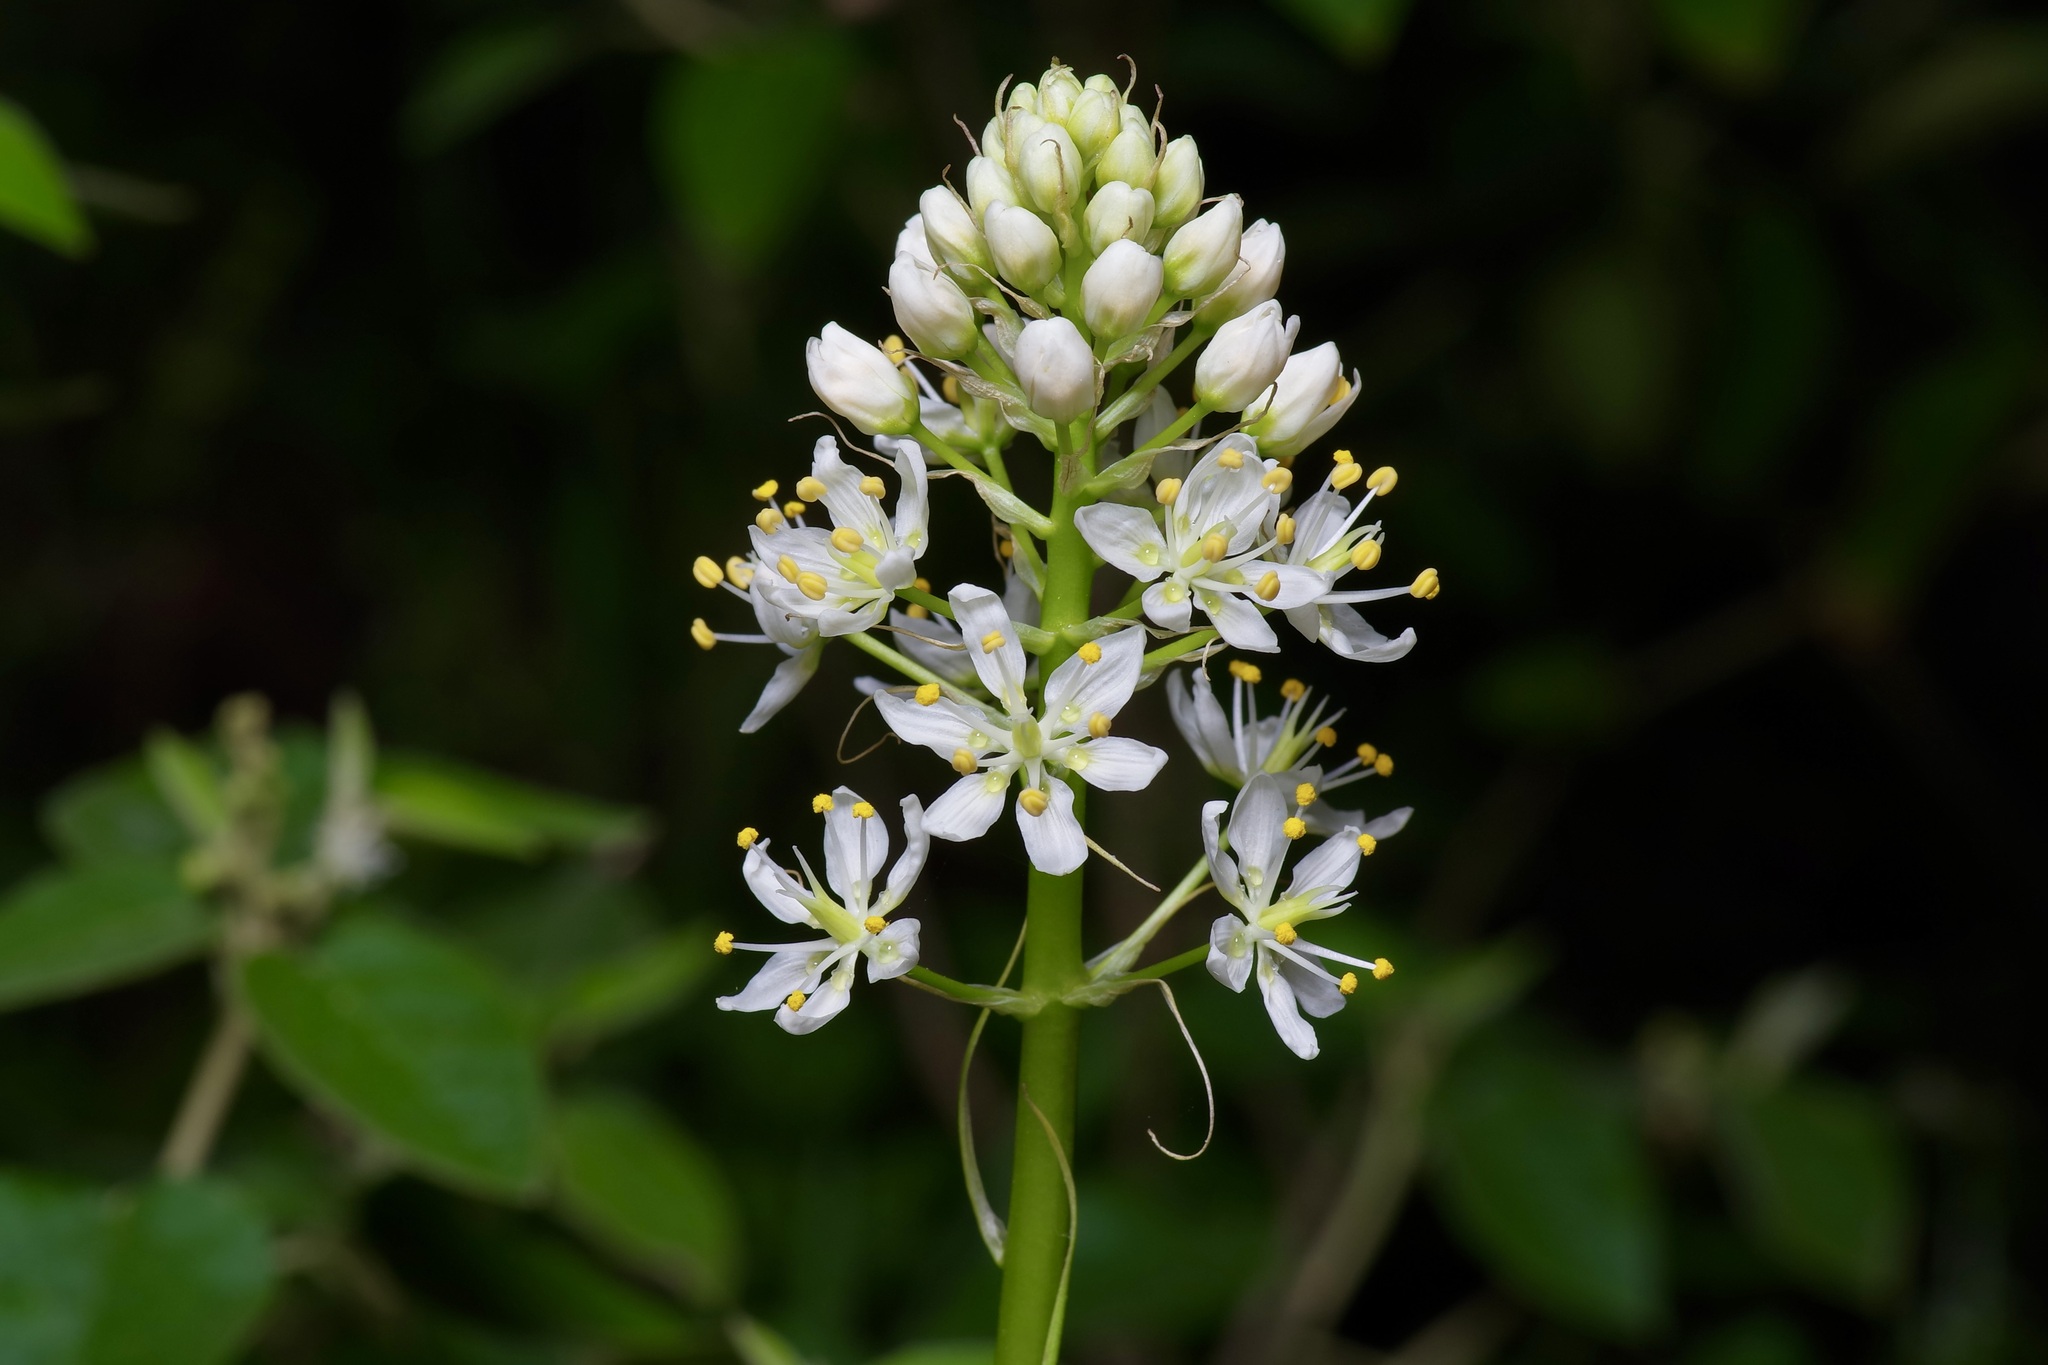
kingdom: Plantae
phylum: Tracheophyta
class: Liliopsida
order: Liliales
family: Melanthiaceae
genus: Toxicoscordion
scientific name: Toxicoscordion nuttallii
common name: Poison sego
